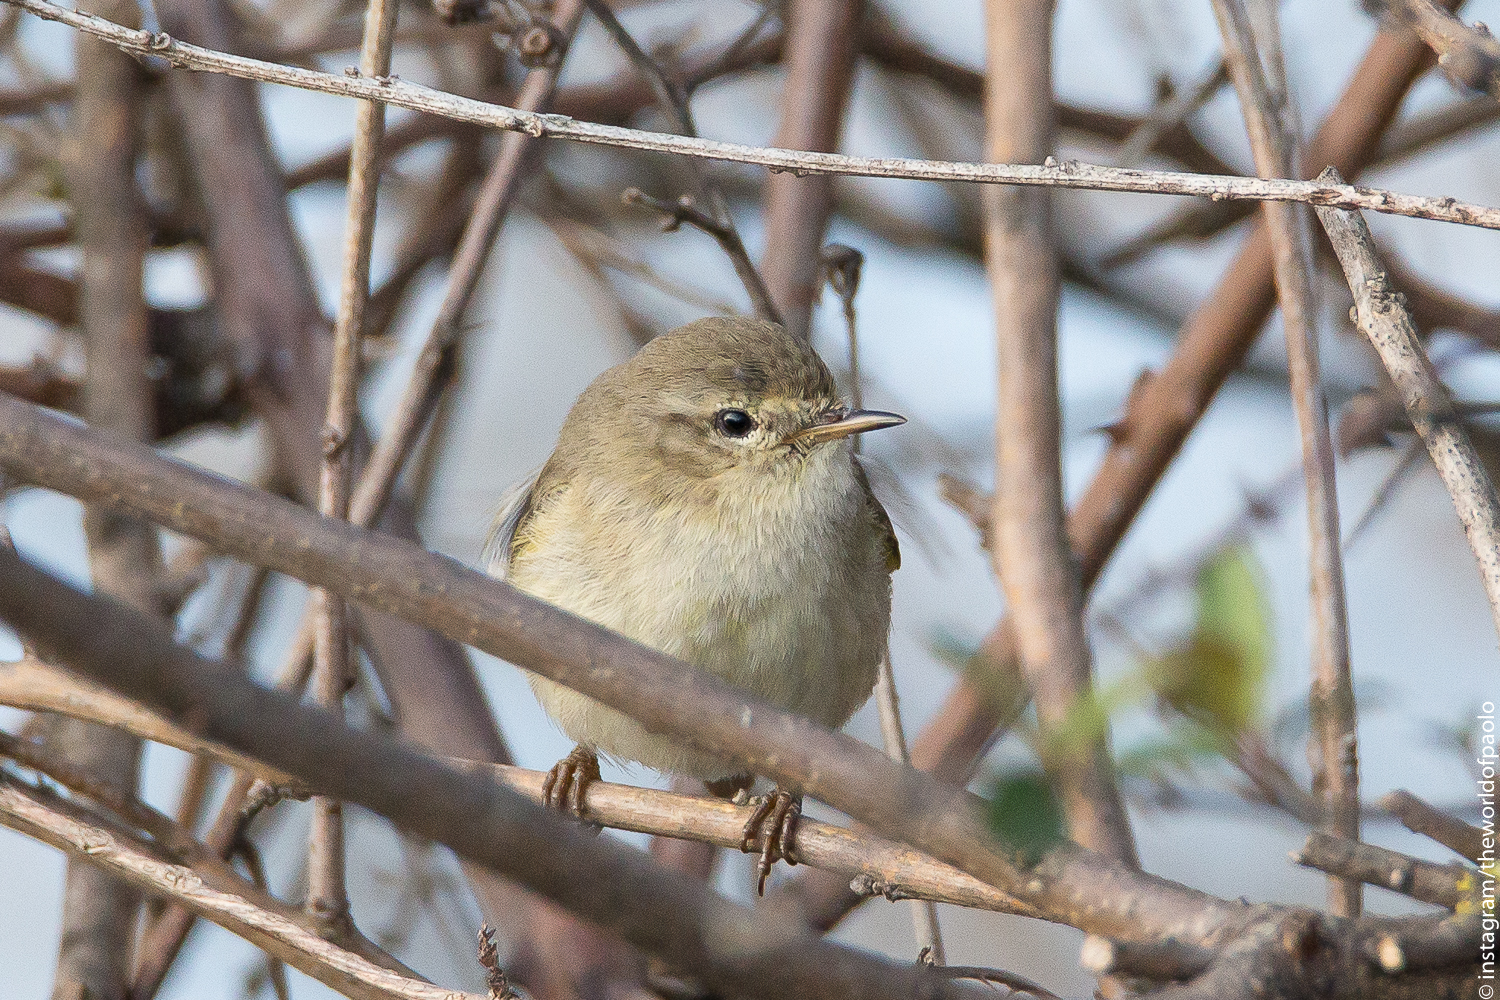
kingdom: Animalia
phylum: Chordata
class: Aves
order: Passeriformes
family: Phylloscopidae
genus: Phylloscopus
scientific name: Phylloscopus collybita
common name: Common chiffchaff
